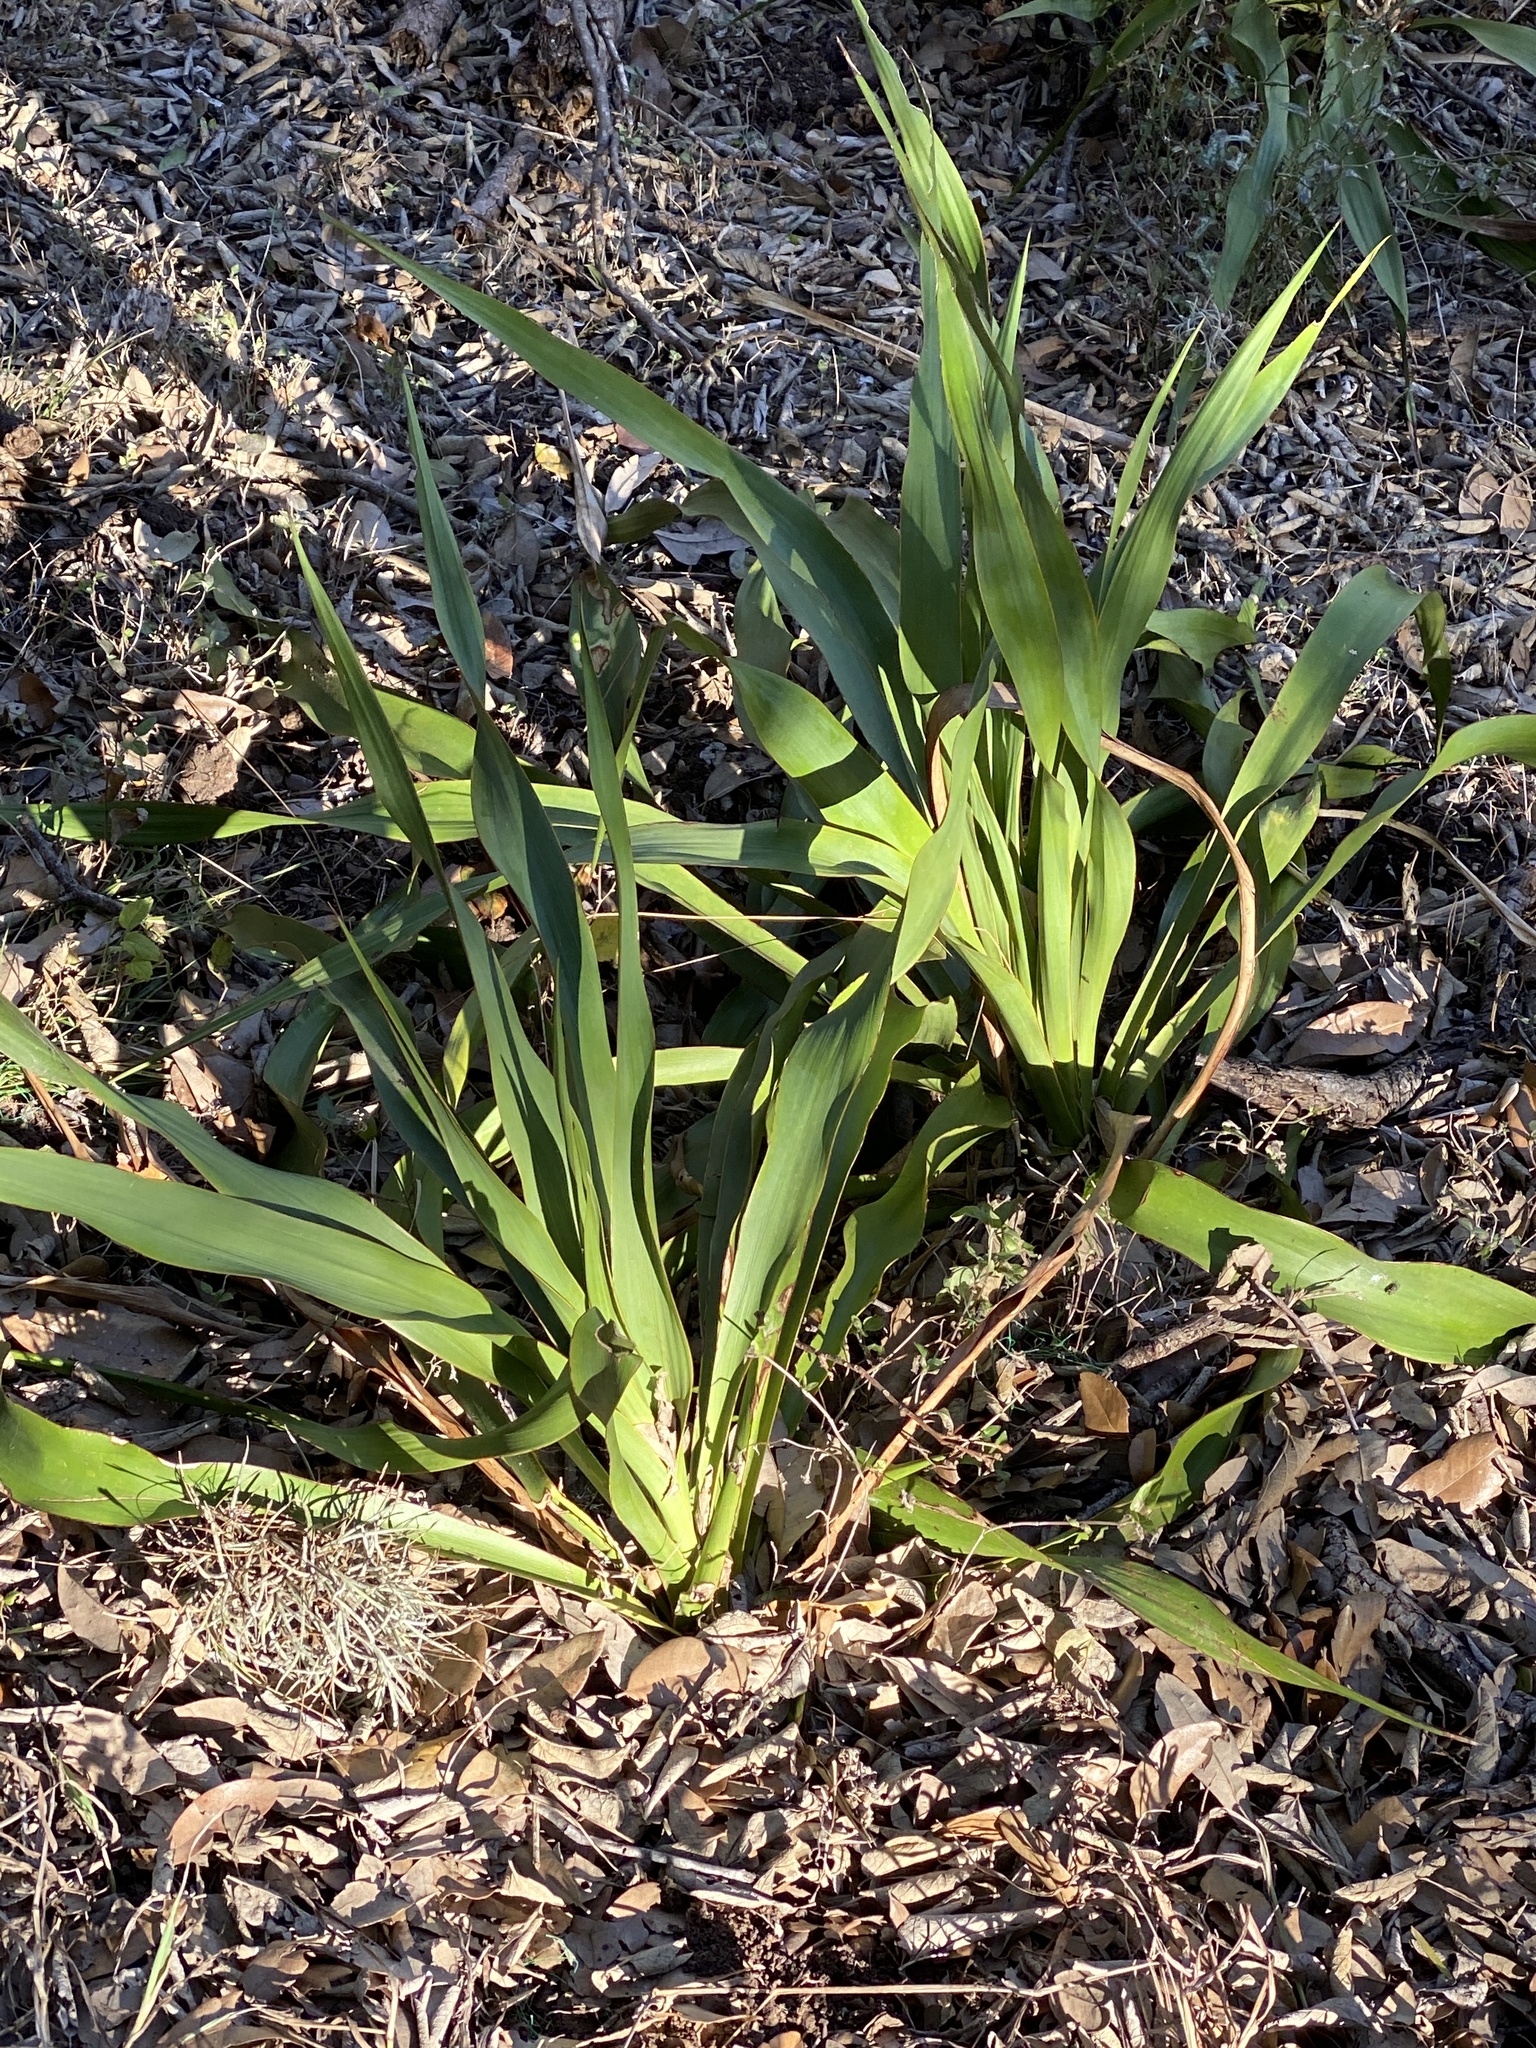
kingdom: Plantae
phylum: Tracheophyta
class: Liliopsida
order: Asparagales
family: Asparagaceae
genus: Yucca
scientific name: Yucca rupicola
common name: Twisted-leaf spanish-dagger
